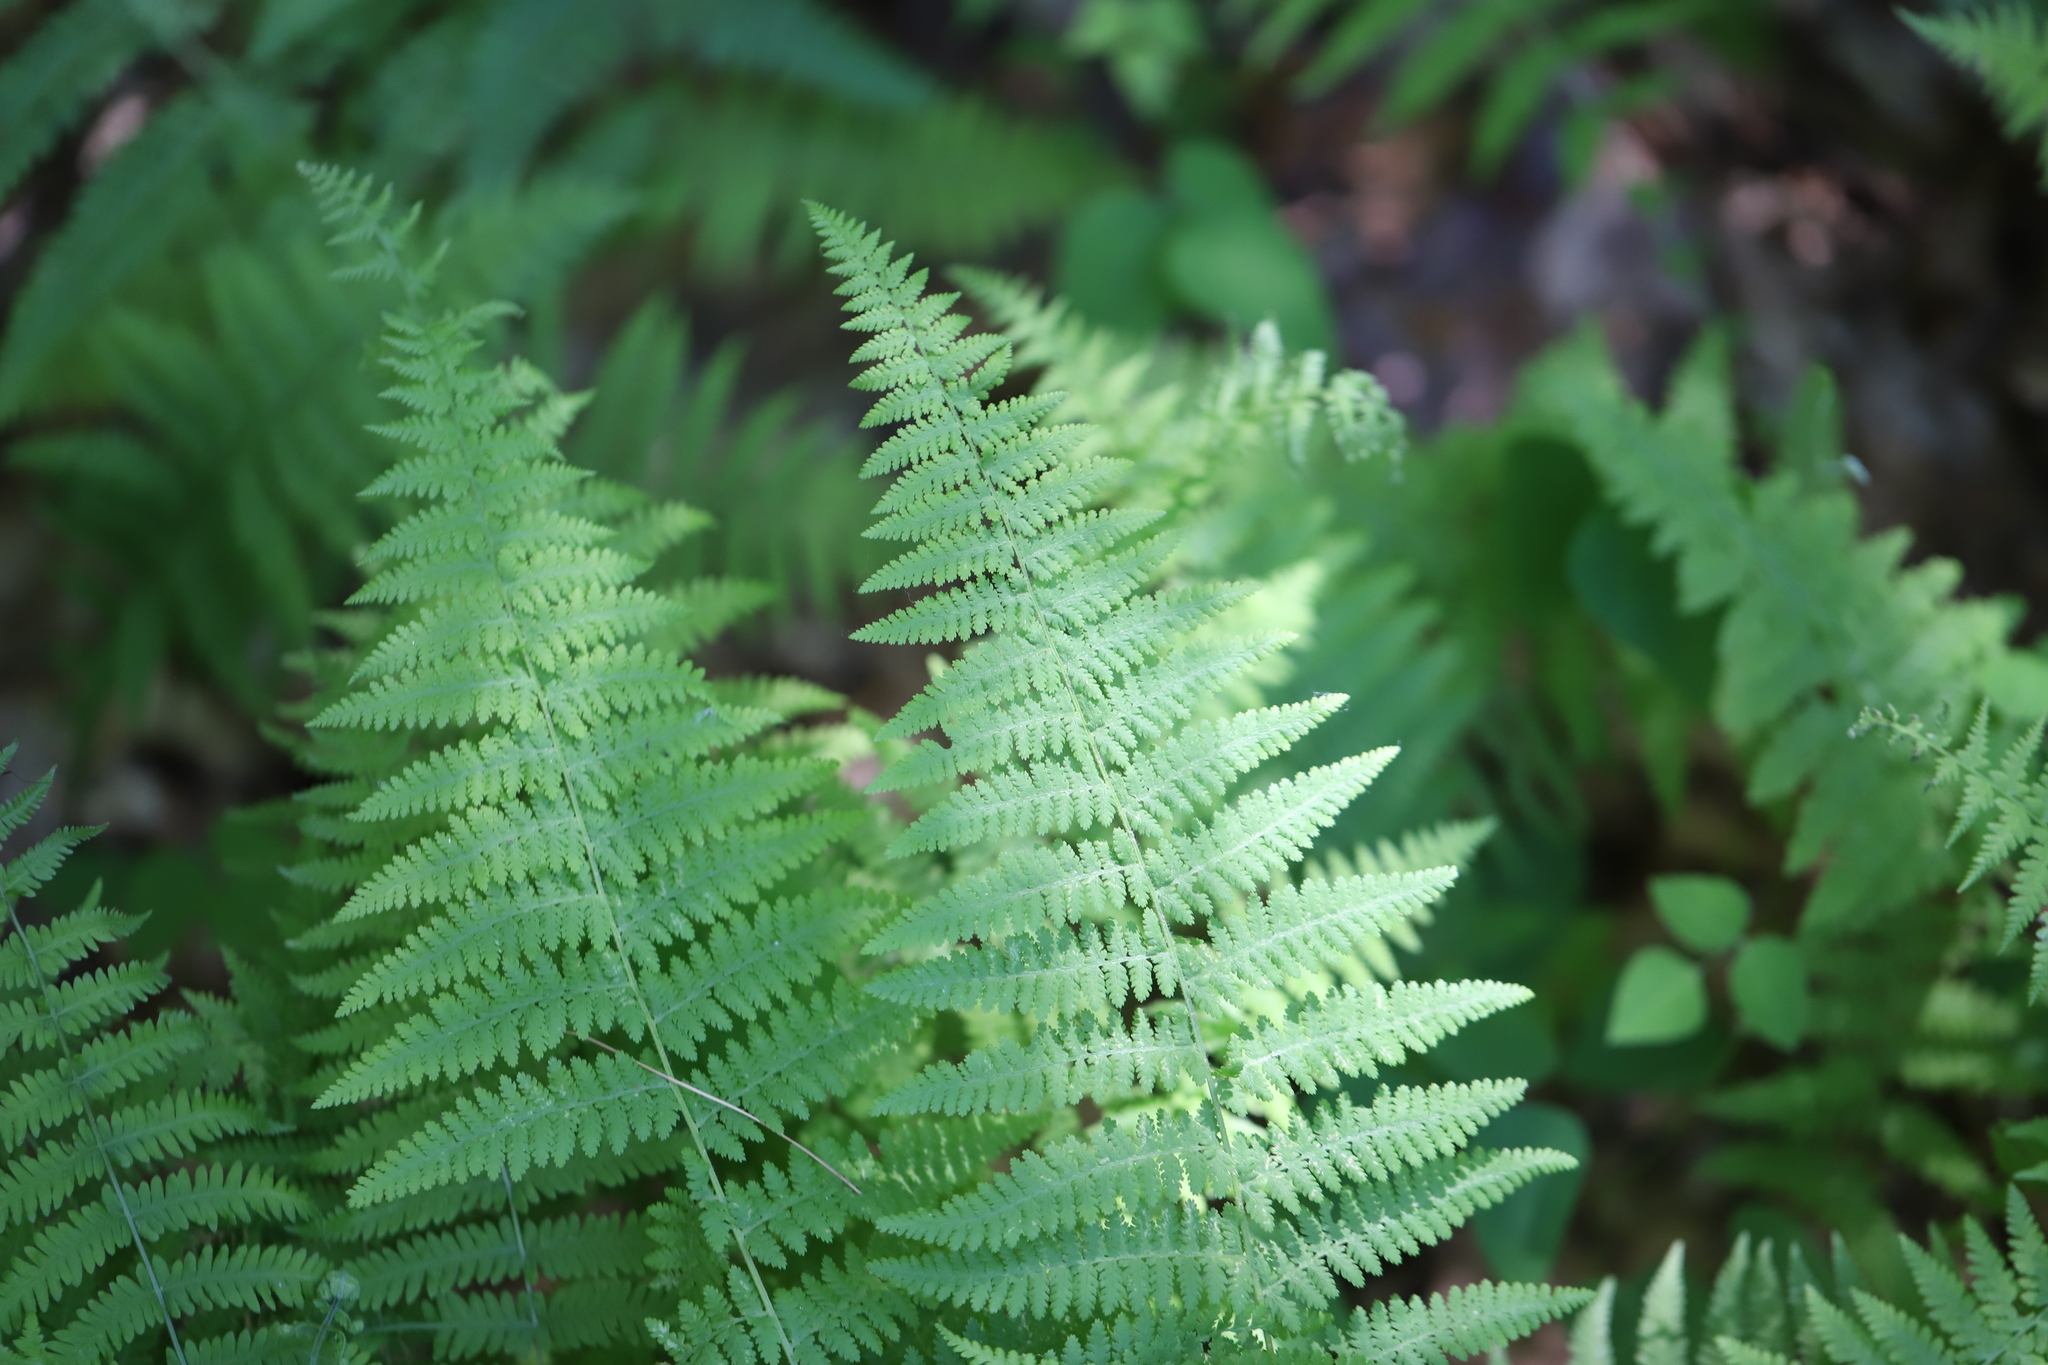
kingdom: Plantae
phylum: Tracheophyta
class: Polypodiopsida
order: Polypodiales
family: Dennstaedtiaceae
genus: Sitobolium
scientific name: Sitobolium punctilobum
